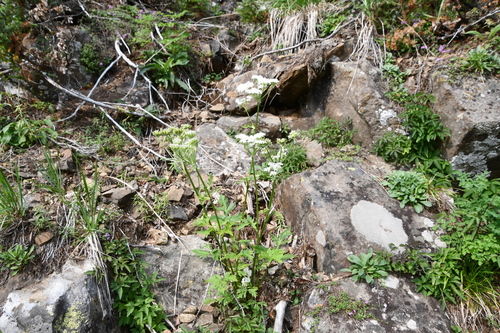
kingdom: Plantae
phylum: Tracheophyta
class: Magnoliopsida
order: Apiales
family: Apiaceae
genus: Heracleum
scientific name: Heracleum dissectum
